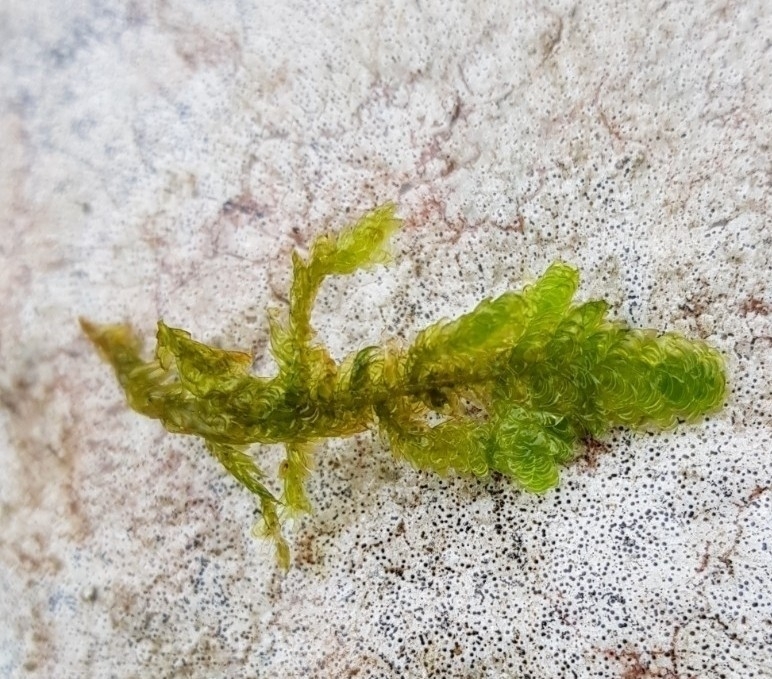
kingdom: Plantae
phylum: Bryophyta
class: Bryopsida
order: Hypnales
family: Neckeraceae
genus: Exsertotheca
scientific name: Exsertotheca crispa
